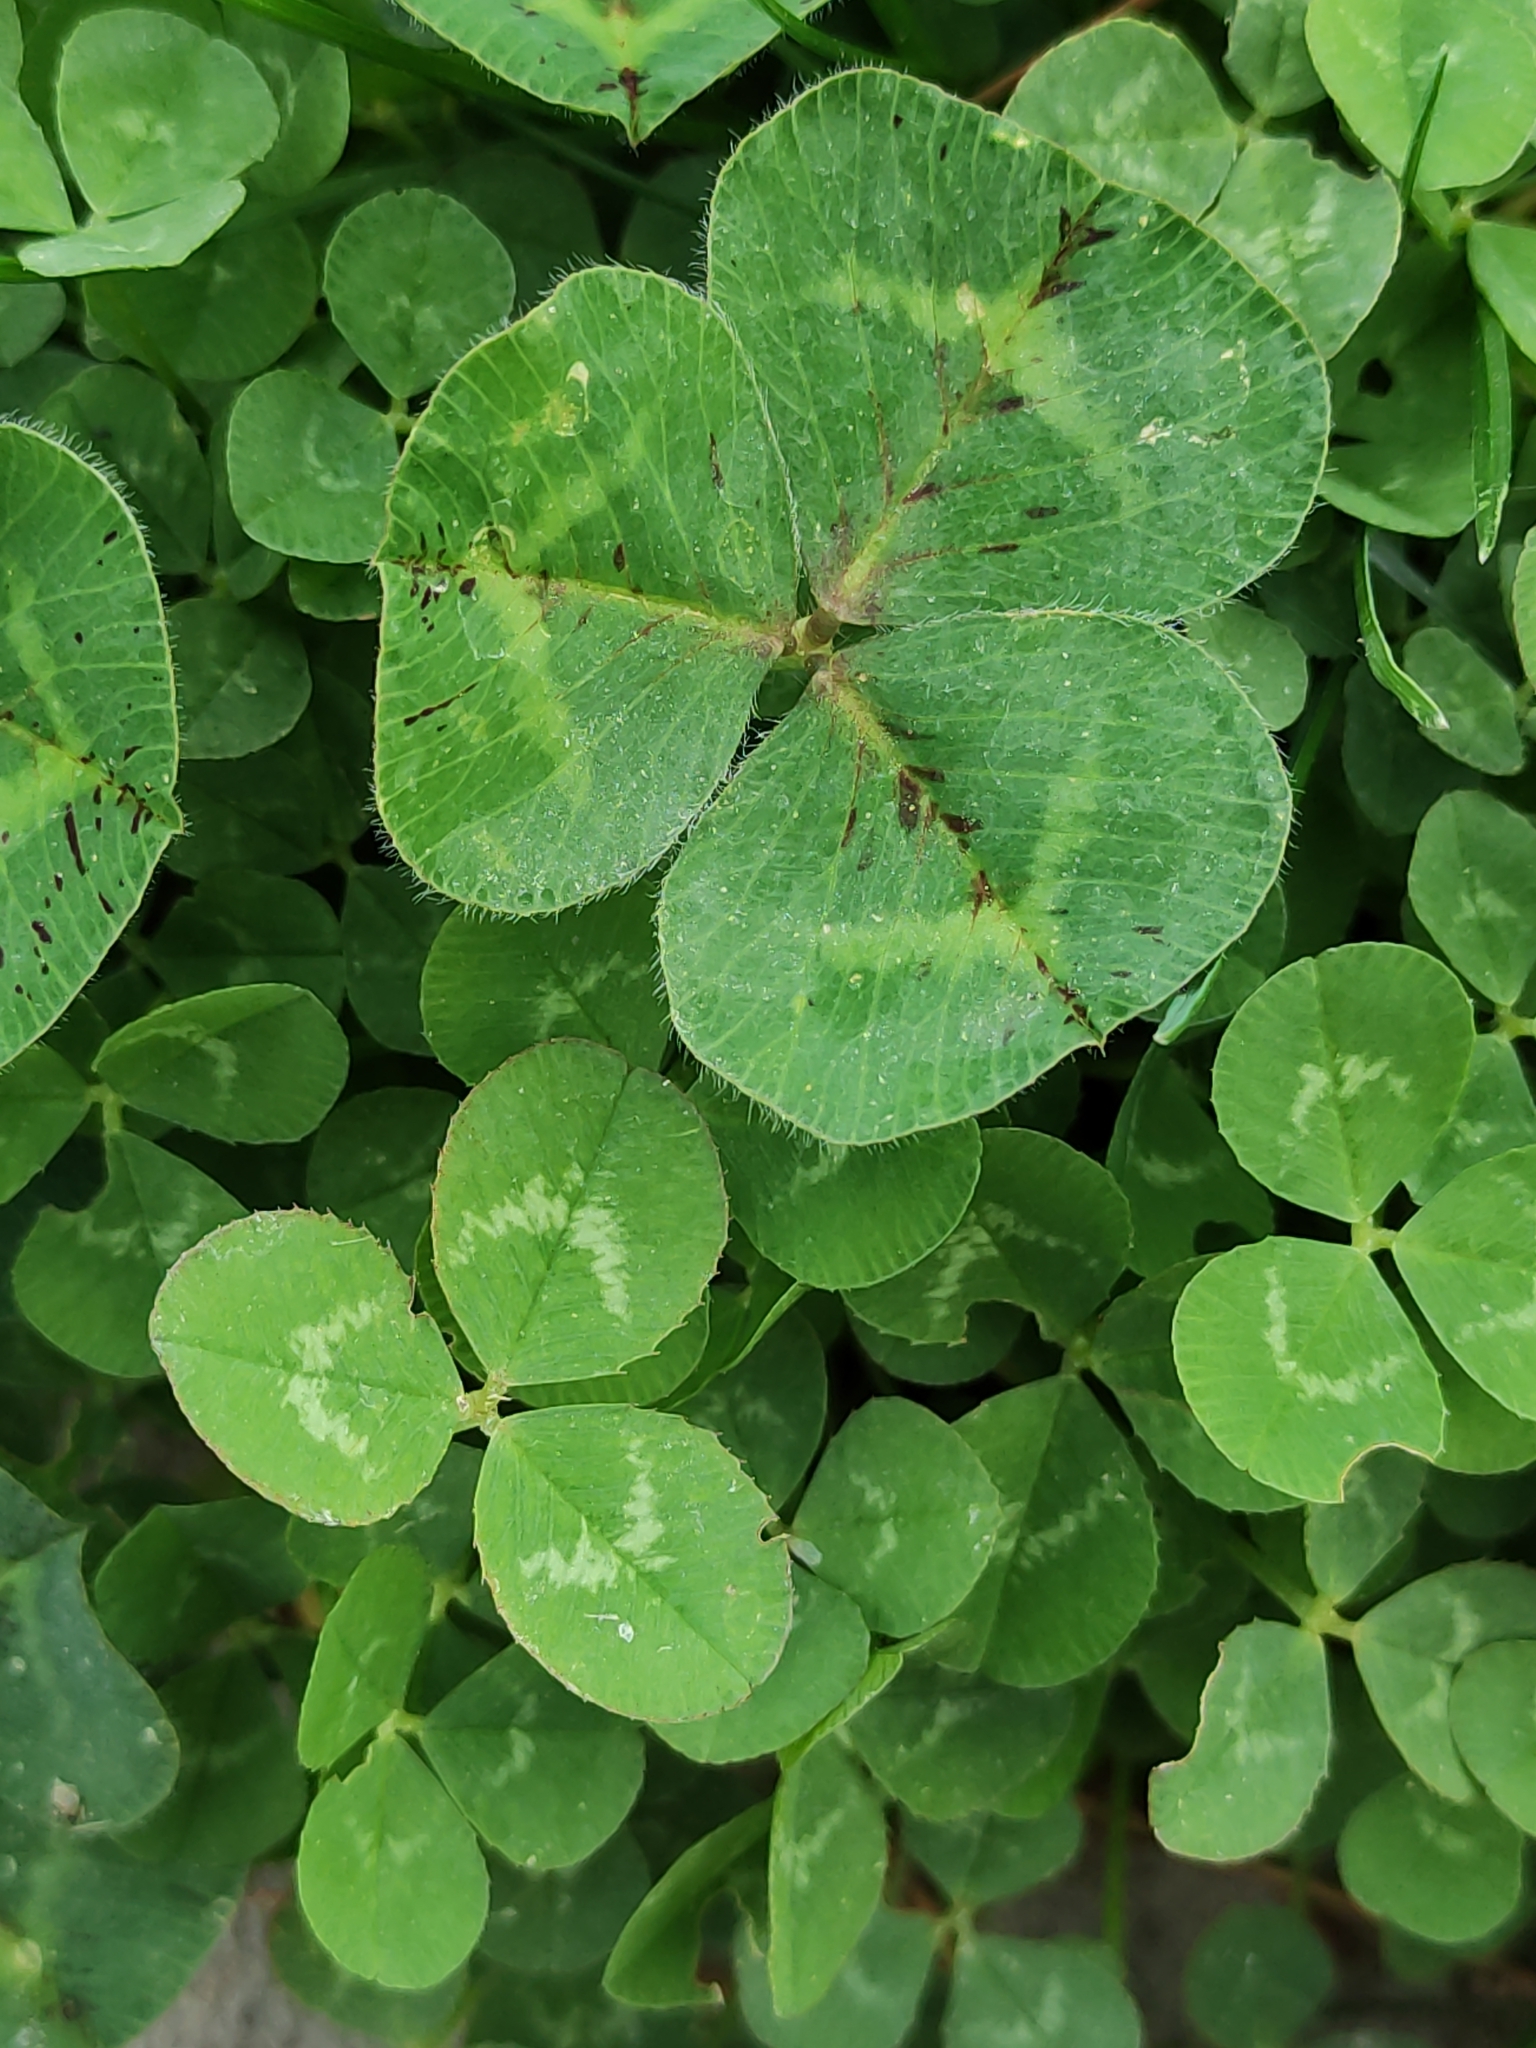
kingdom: Plantae
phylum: Tracheophyta
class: Magnoliopsida
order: Fabales
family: Fabaceae
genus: Trifolium
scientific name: Trifolium repens
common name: White clover
